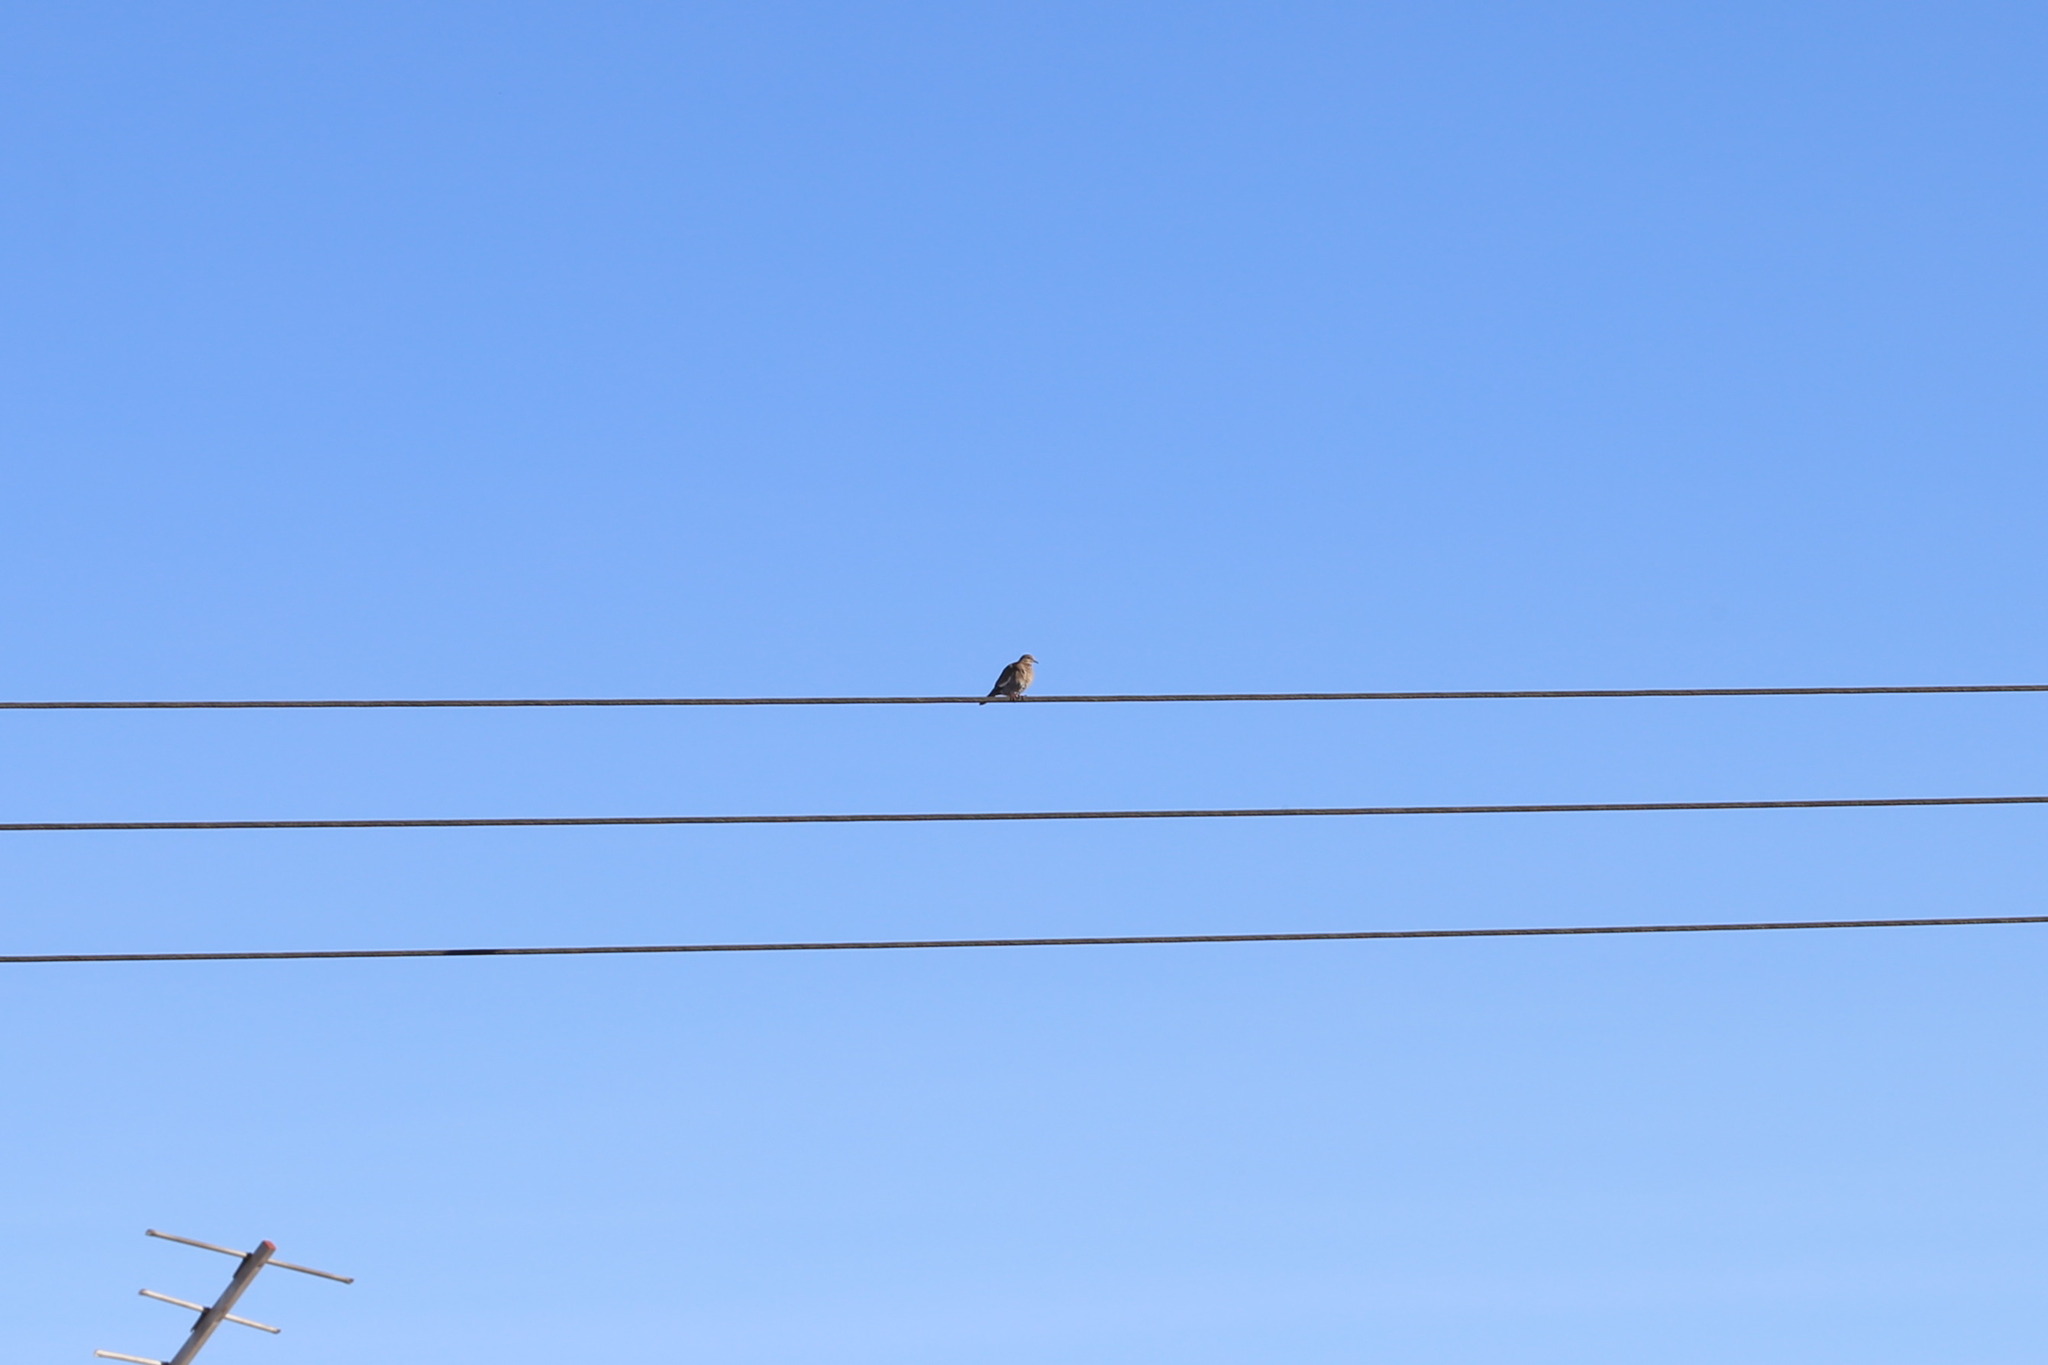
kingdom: Animalia
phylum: Chordata
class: Aves
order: Columbiformes
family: Columbidae
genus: Zenaida
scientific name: Zenaida asiatica
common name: White-winged dove
